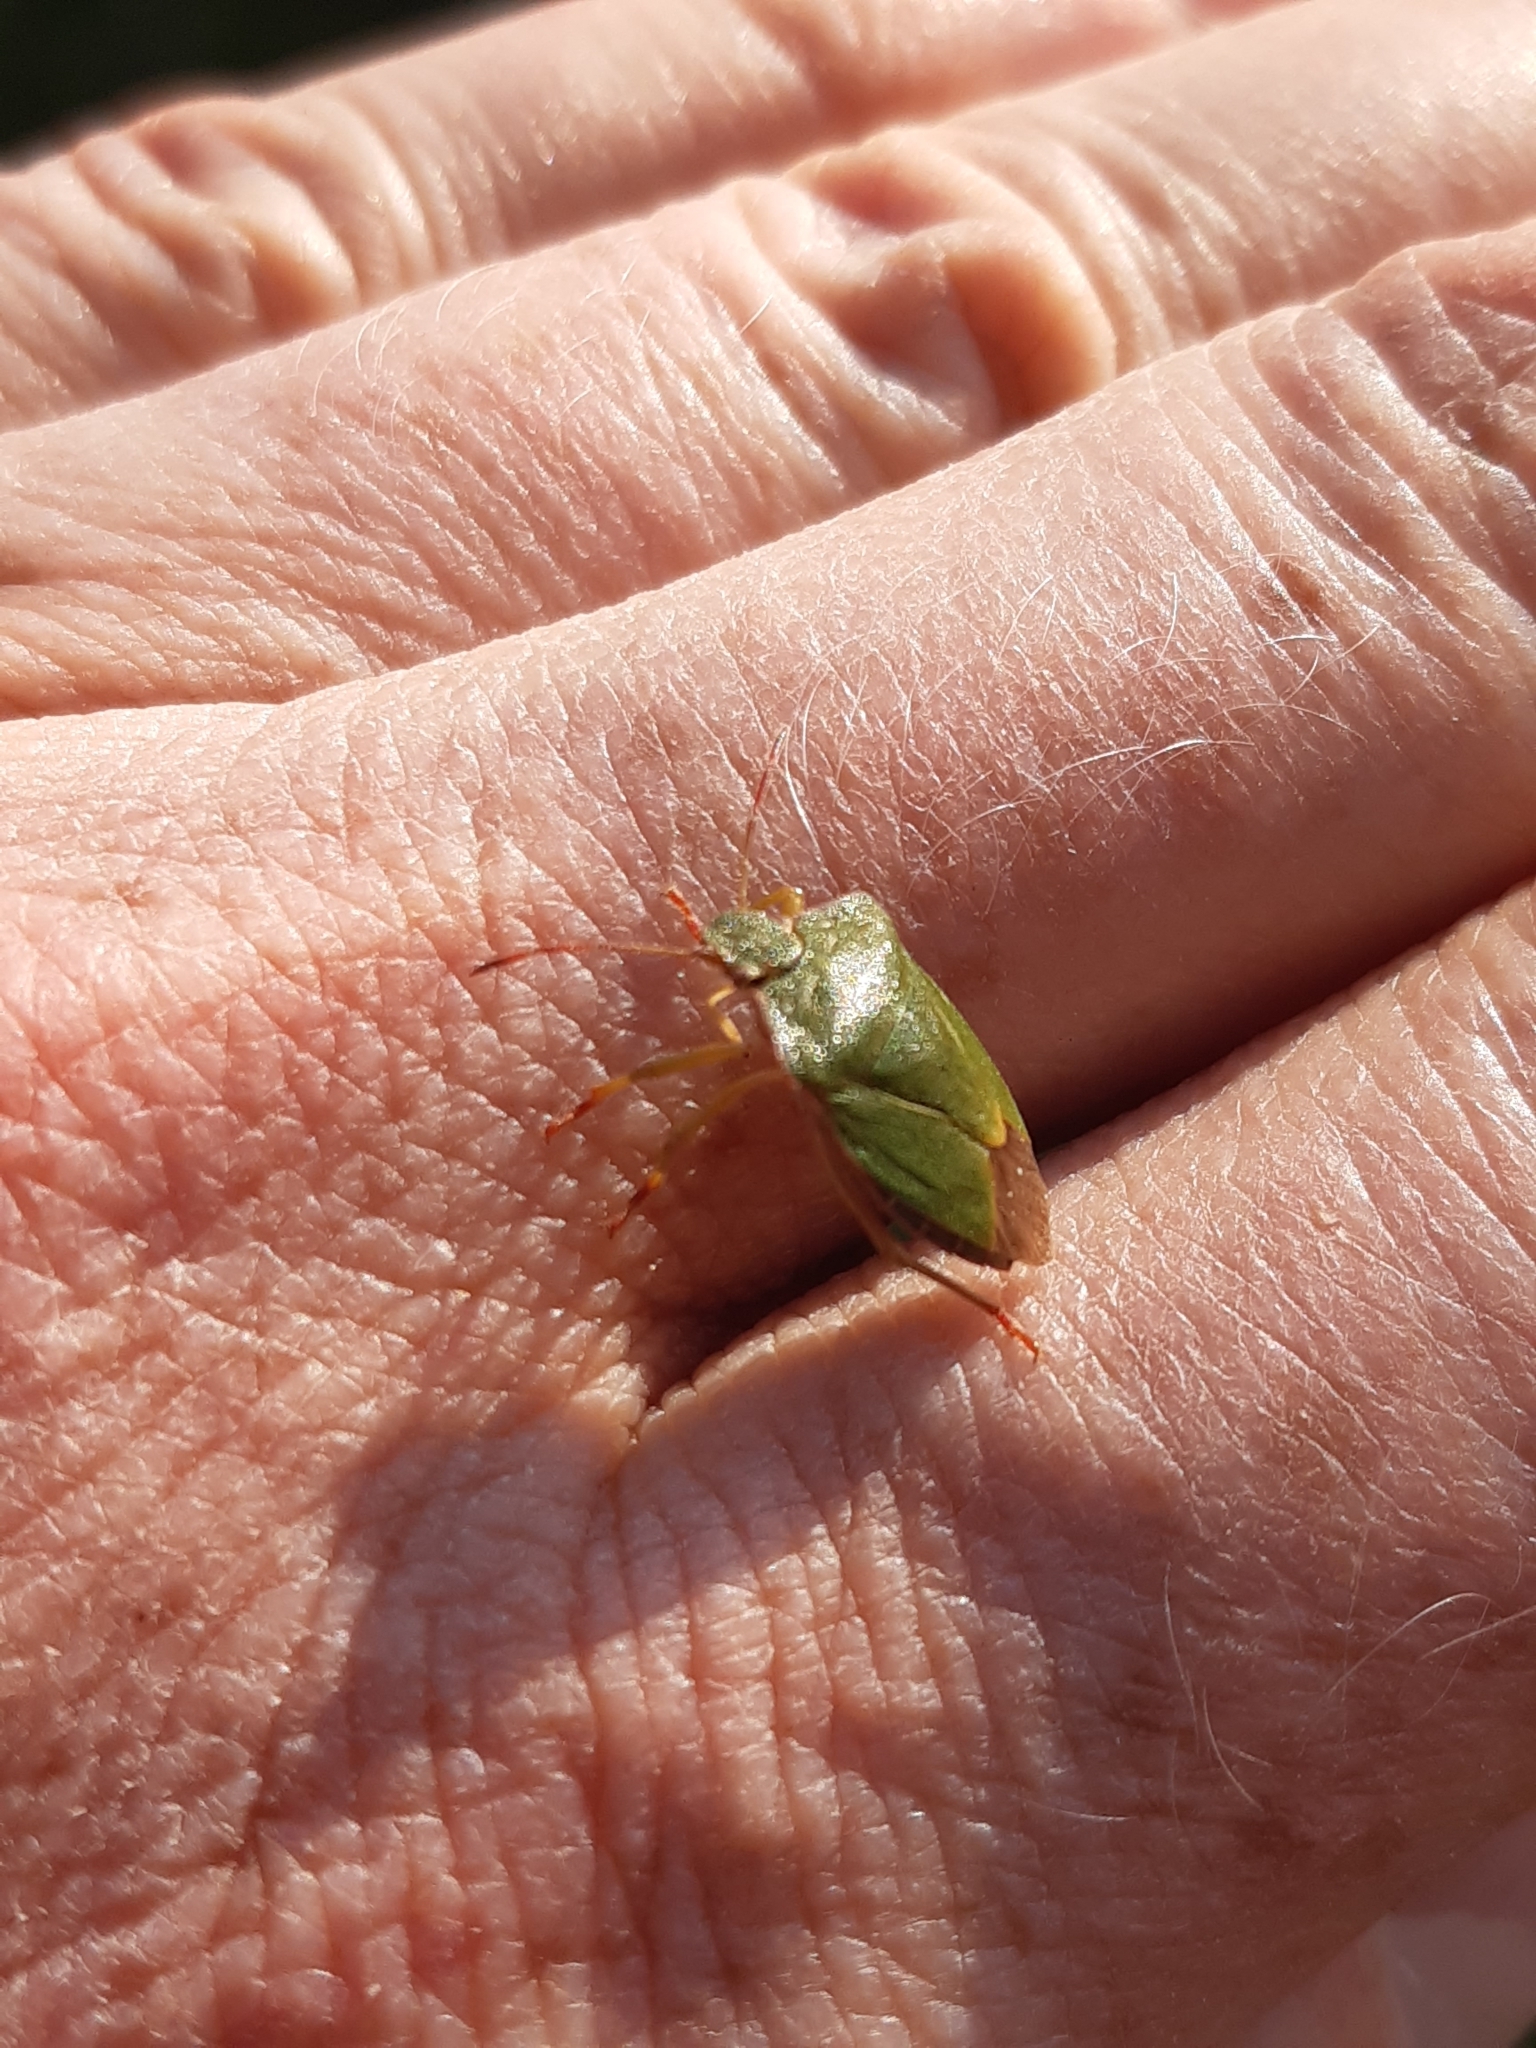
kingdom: Animalia
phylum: Arthropoda
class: Insecta
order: Hemiptera
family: Pentatomidae
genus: Palomena
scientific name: Palomena prasina
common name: Green shieldbug
